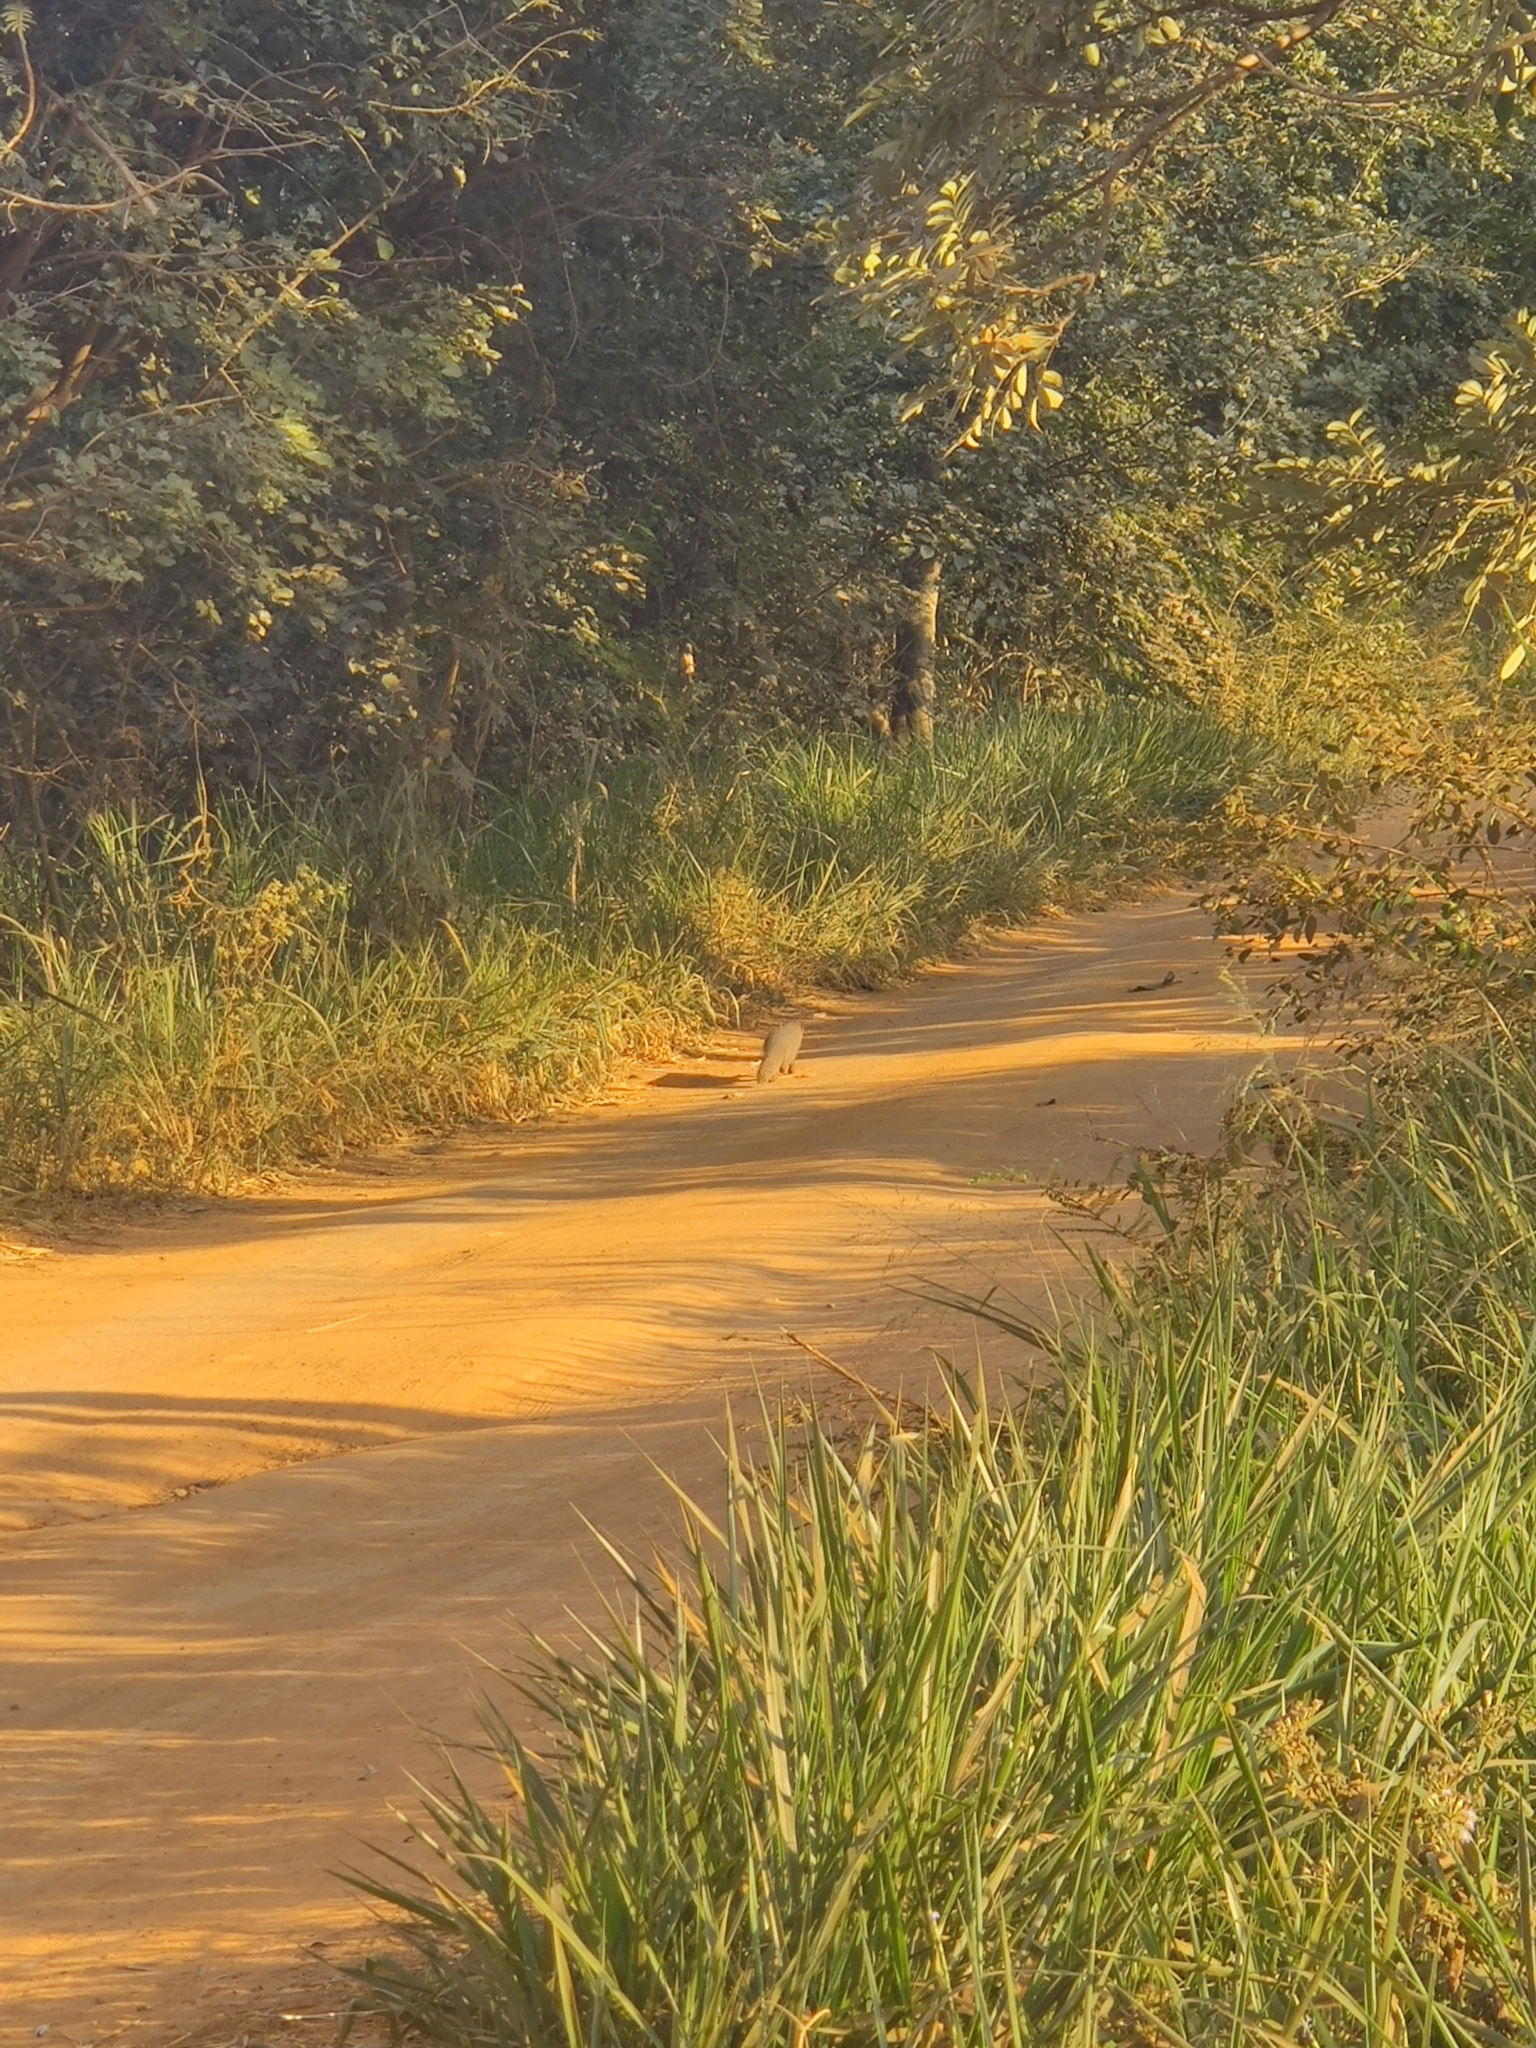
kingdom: Animalia
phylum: Chordata
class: Mammalia
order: Carnivora
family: Herpestidae
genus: Herpestes
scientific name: Herpestes edwardsi
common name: Indian gray mongoose
